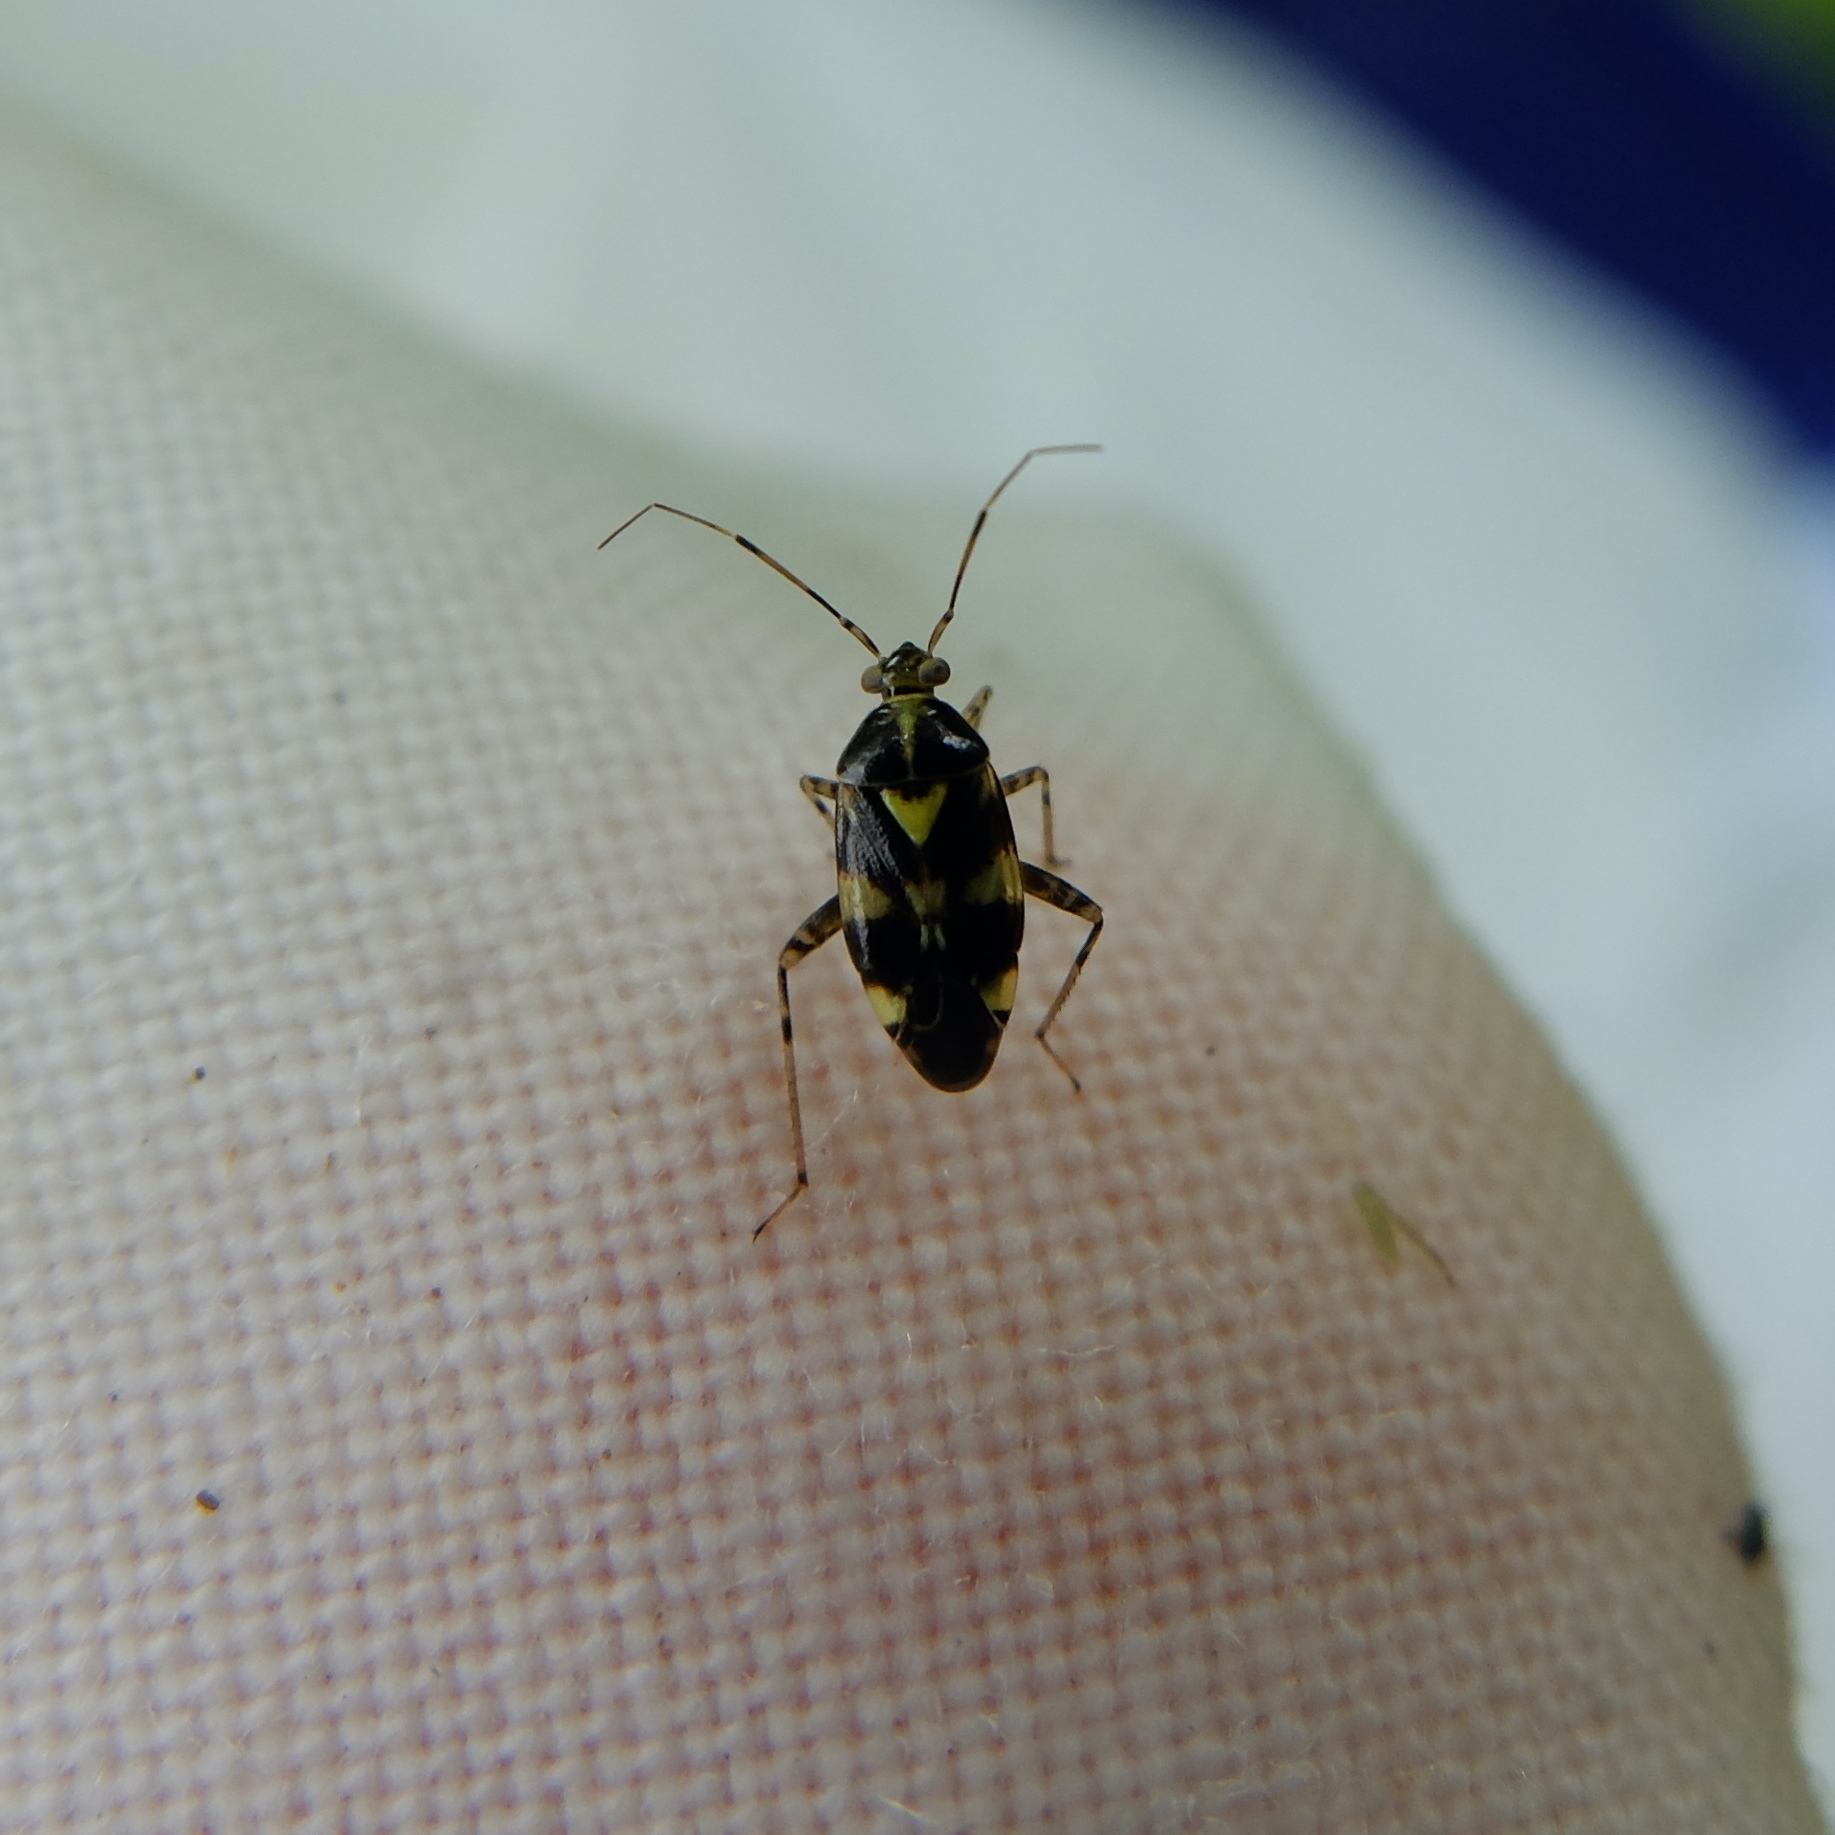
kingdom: Animalia
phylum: Arthropoda
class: Insecta
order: Hemiptera
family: Miridae
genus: Liocoris
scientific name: Liocoris tripustulatus
